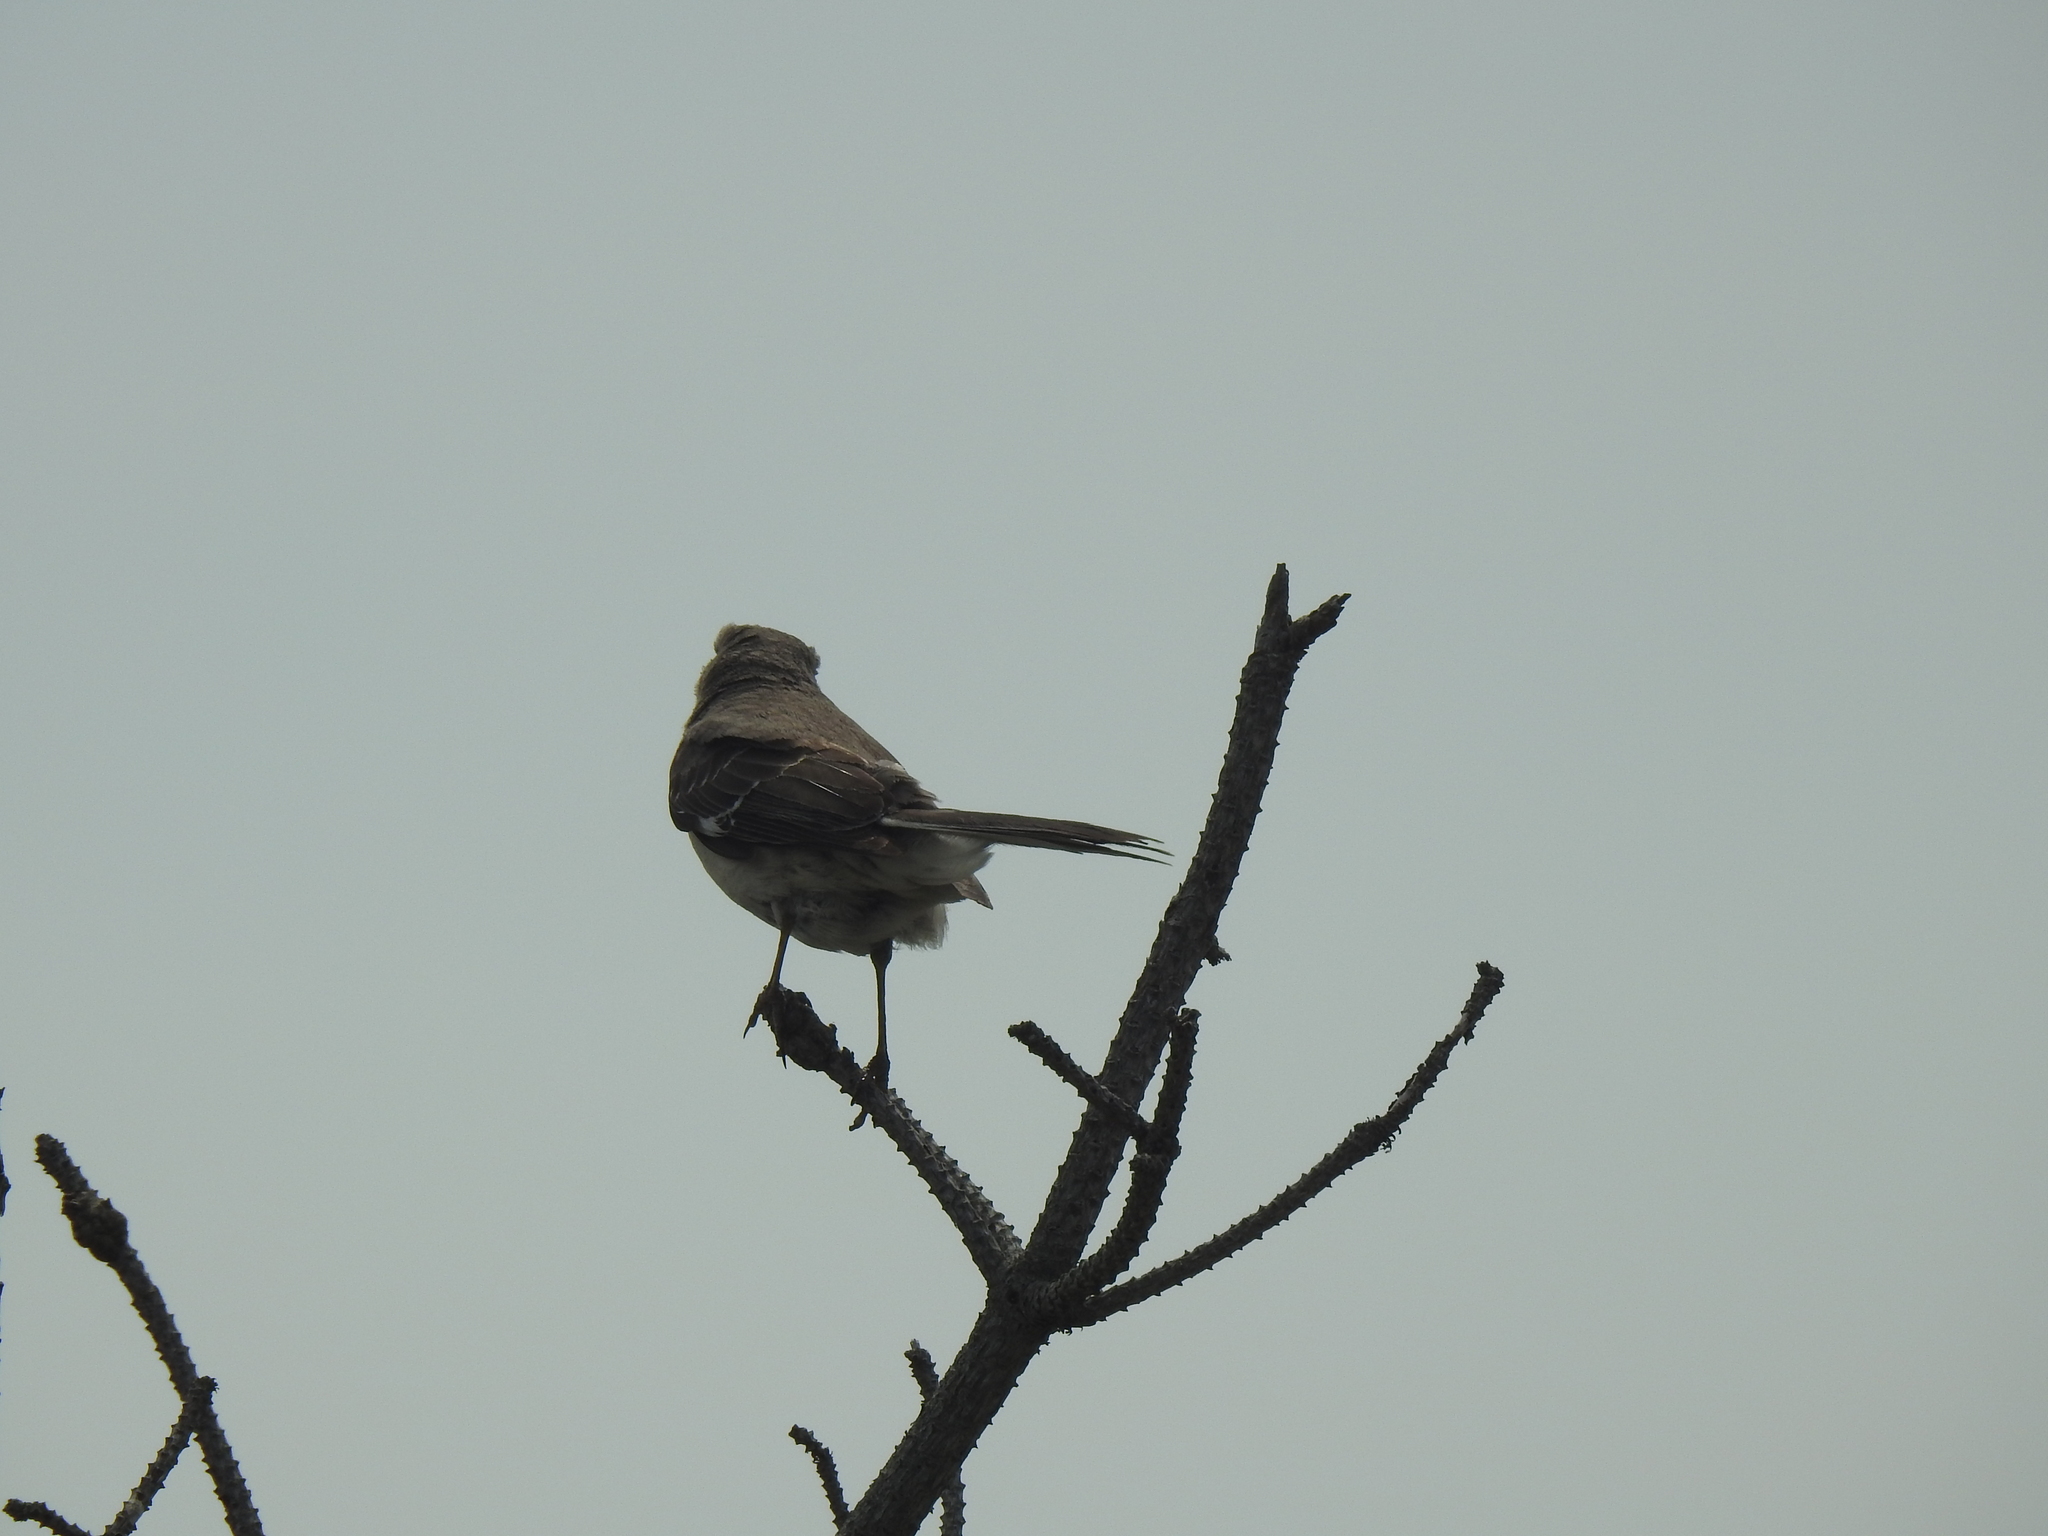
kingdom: Animalia
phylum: Chordata
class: Aves
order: Passeriformes
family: Mimidae
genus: Mimus
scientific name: Mimus polyglottos
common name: Northern mockingbird
